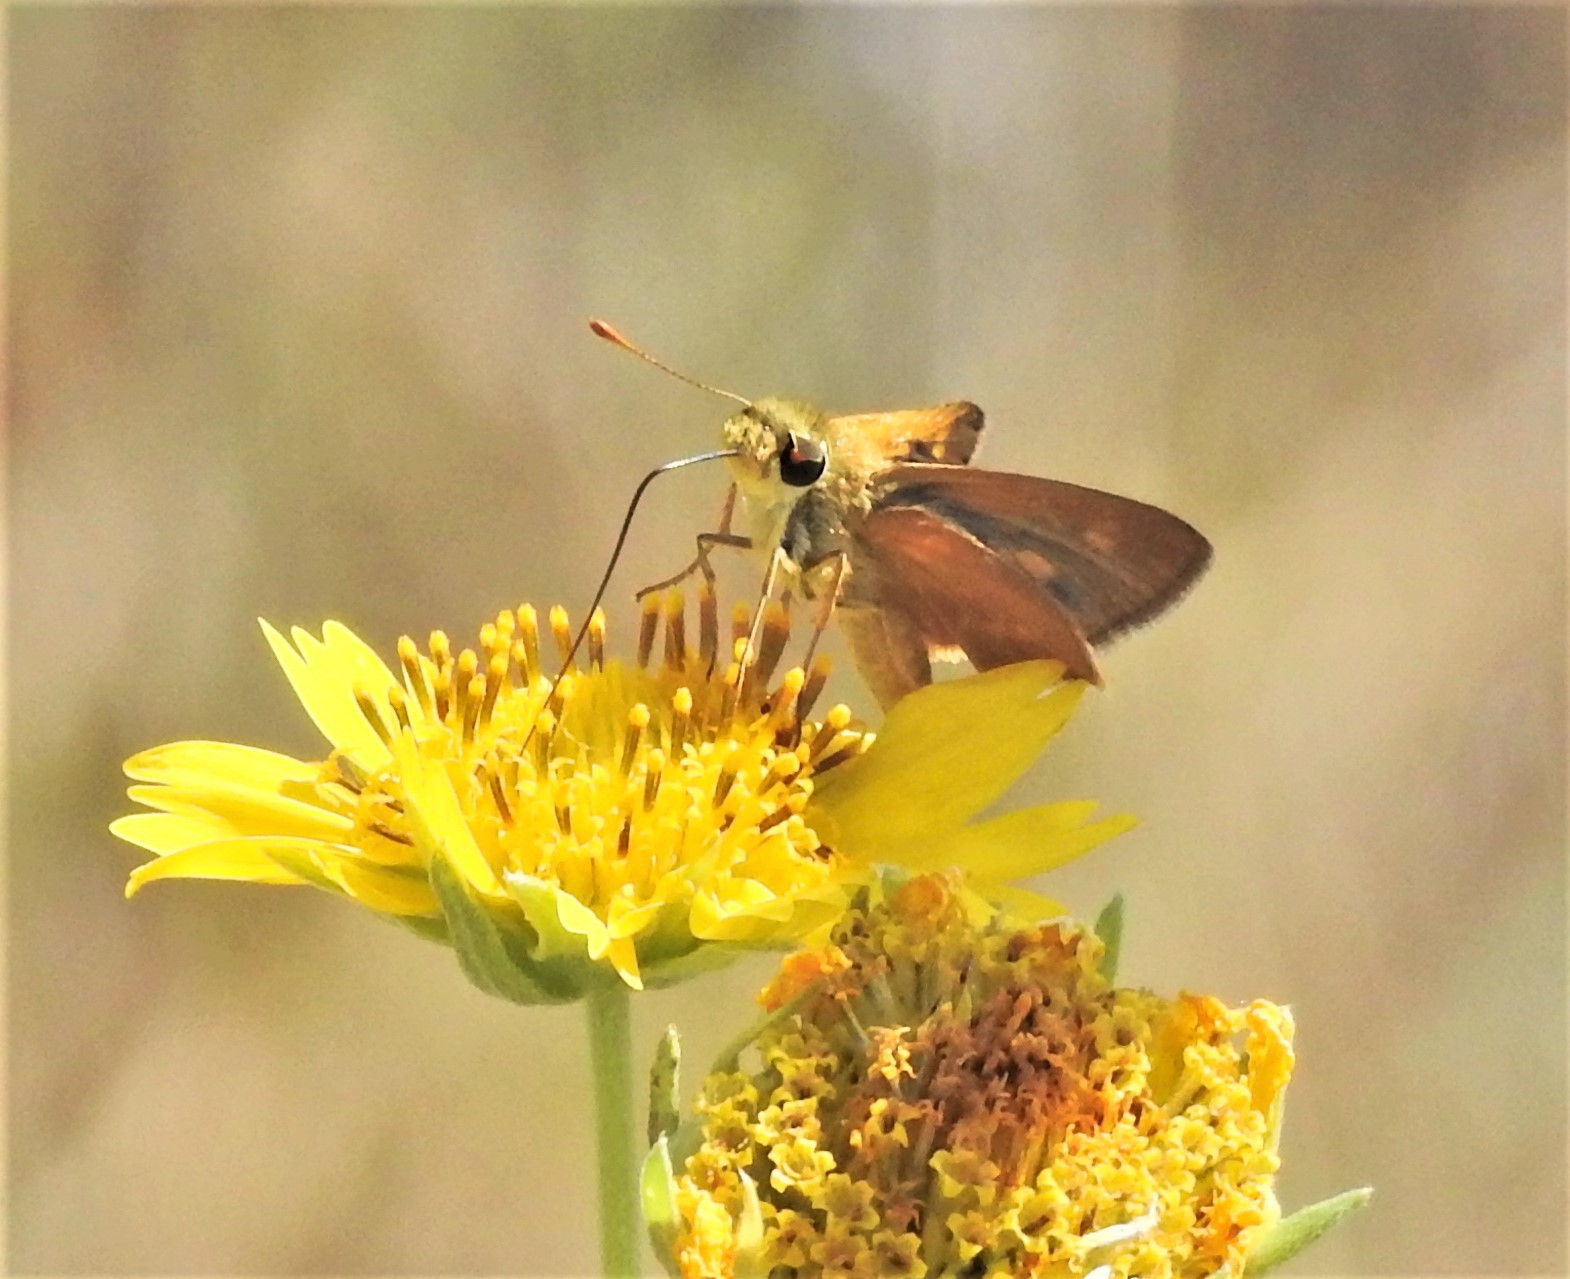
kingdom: Animalia
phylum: Arthropoda
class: Insecta
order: Lepidoptera
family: Hesperiidae
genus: Polites
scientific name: Polites otho
